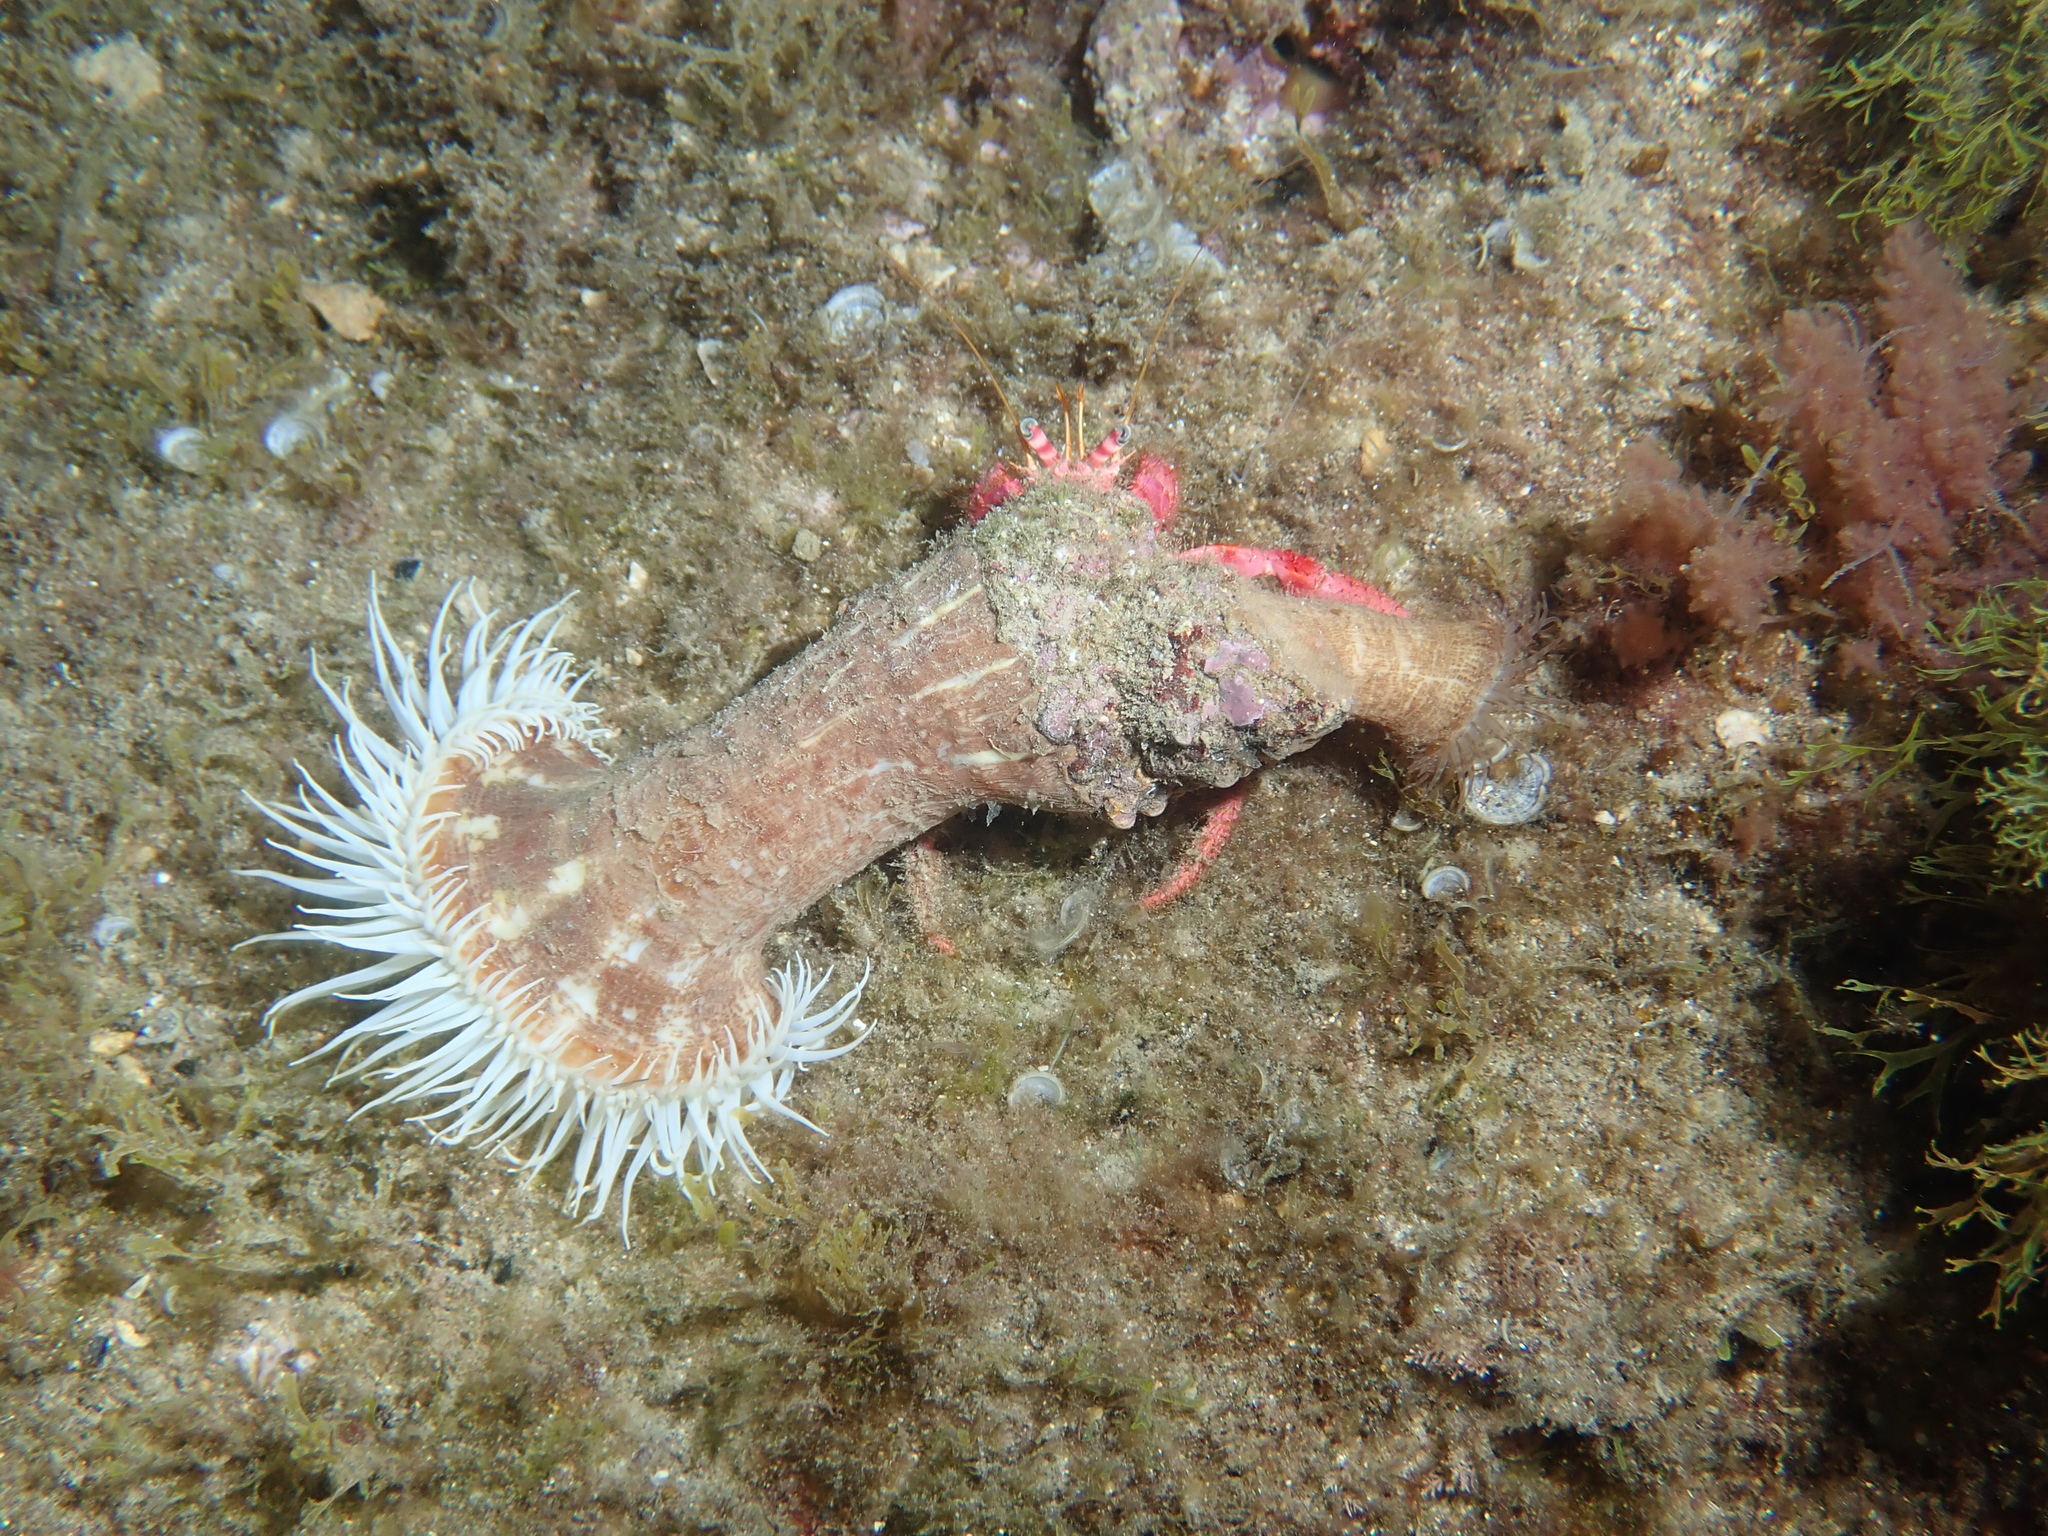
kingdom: Animalia
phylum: Arthropoda
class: Malacostraca
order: Decapoda
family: Diogenidae
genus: Dardanus
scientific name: Dardanus calidus
